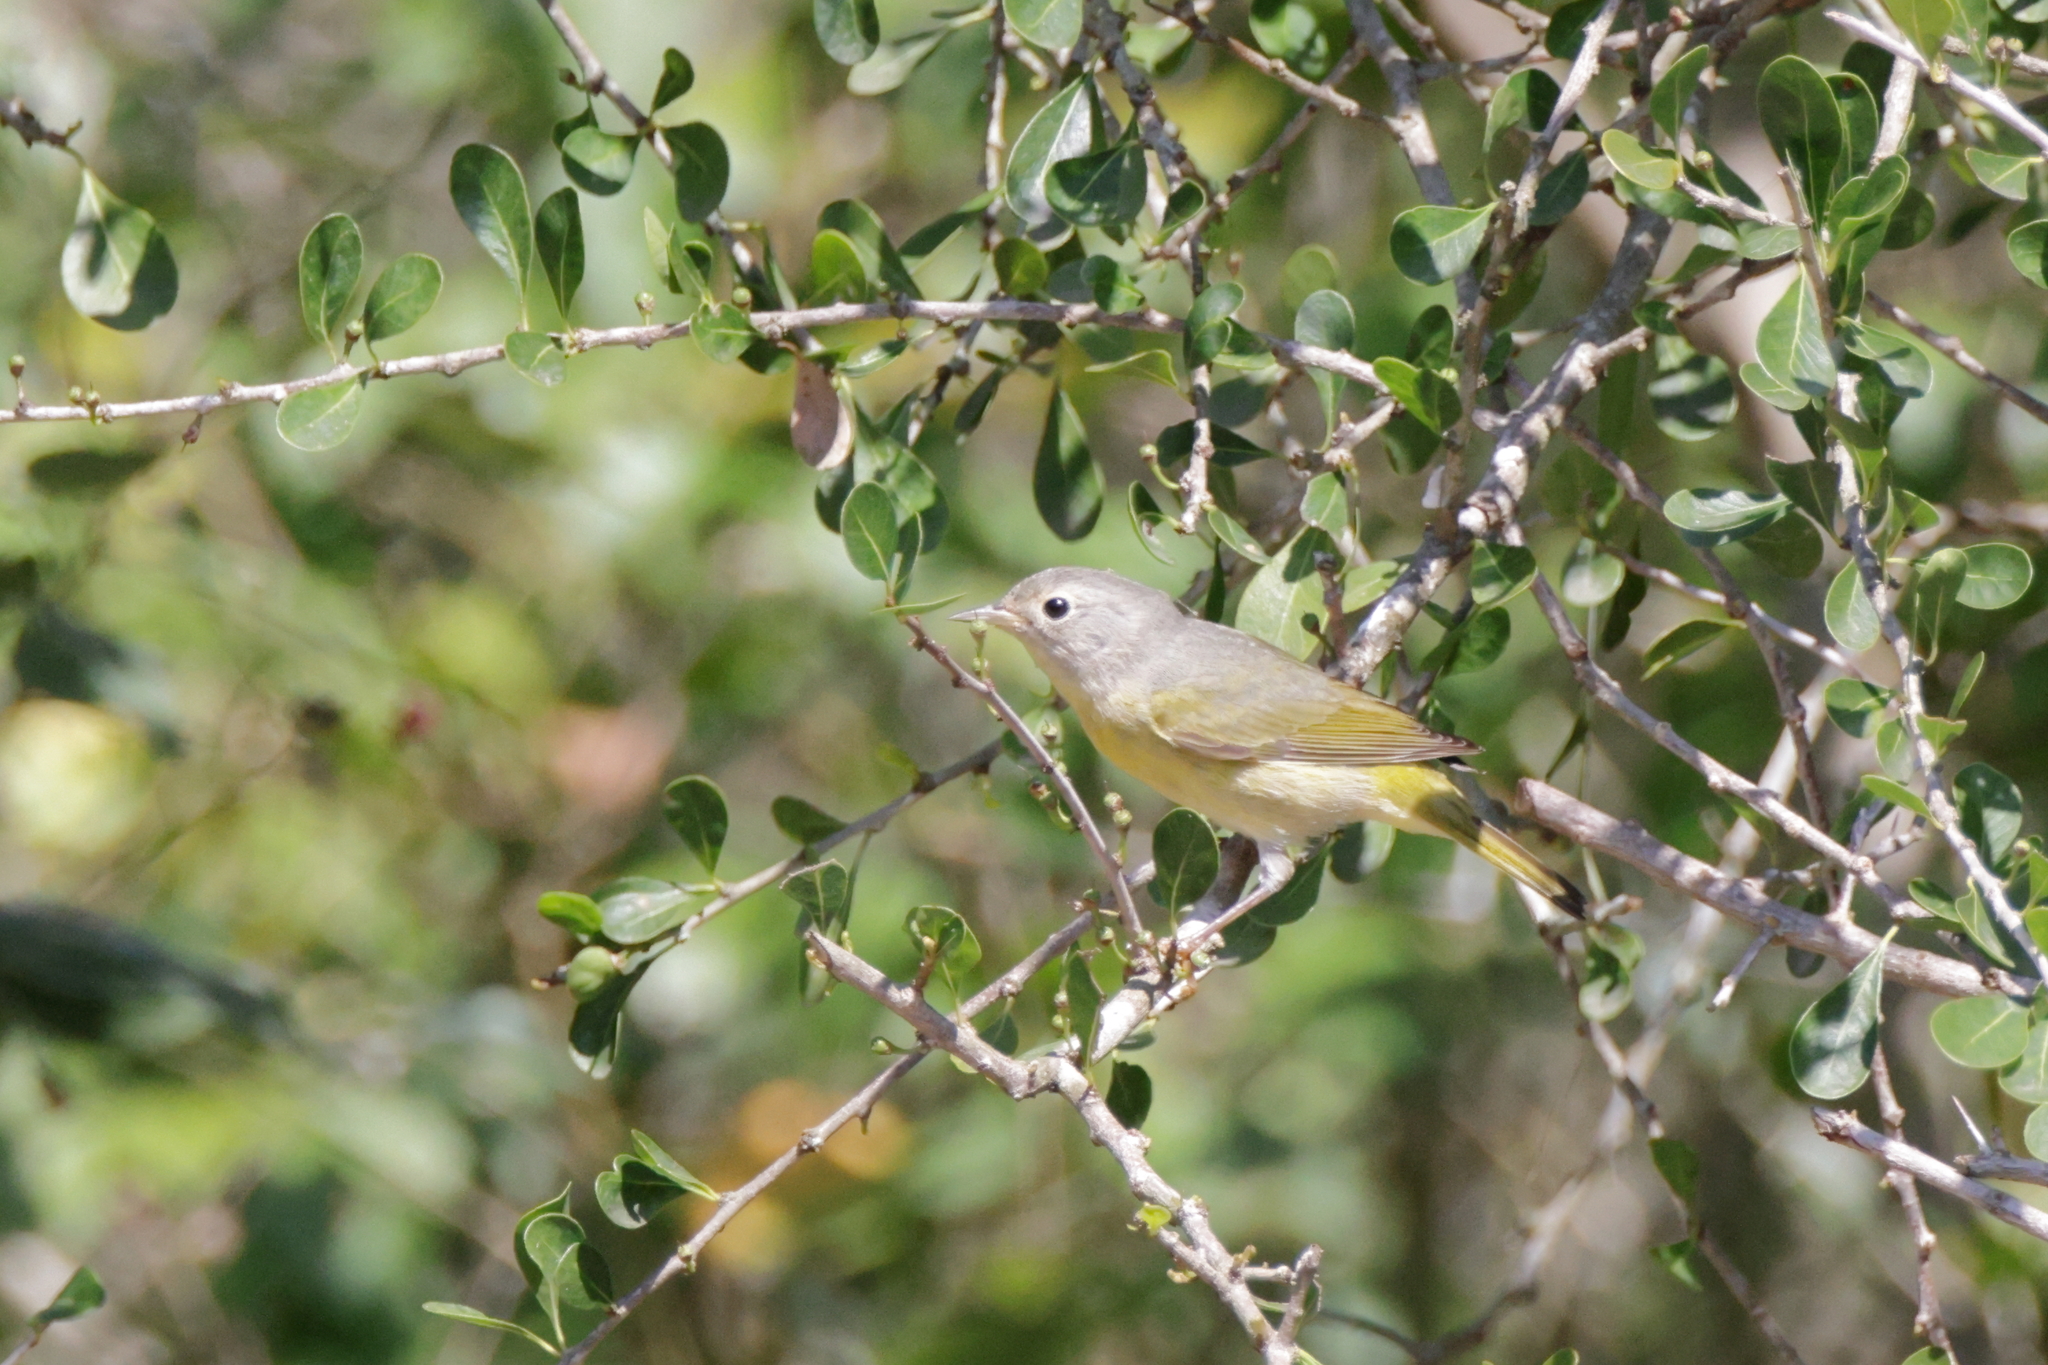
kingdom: Animalia
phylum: Chordata
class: Aves
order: Passeriformes
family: Parulidae
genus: Leiothlypis
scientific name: Leiothlypis ruficapilla
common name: Nashville warbler
